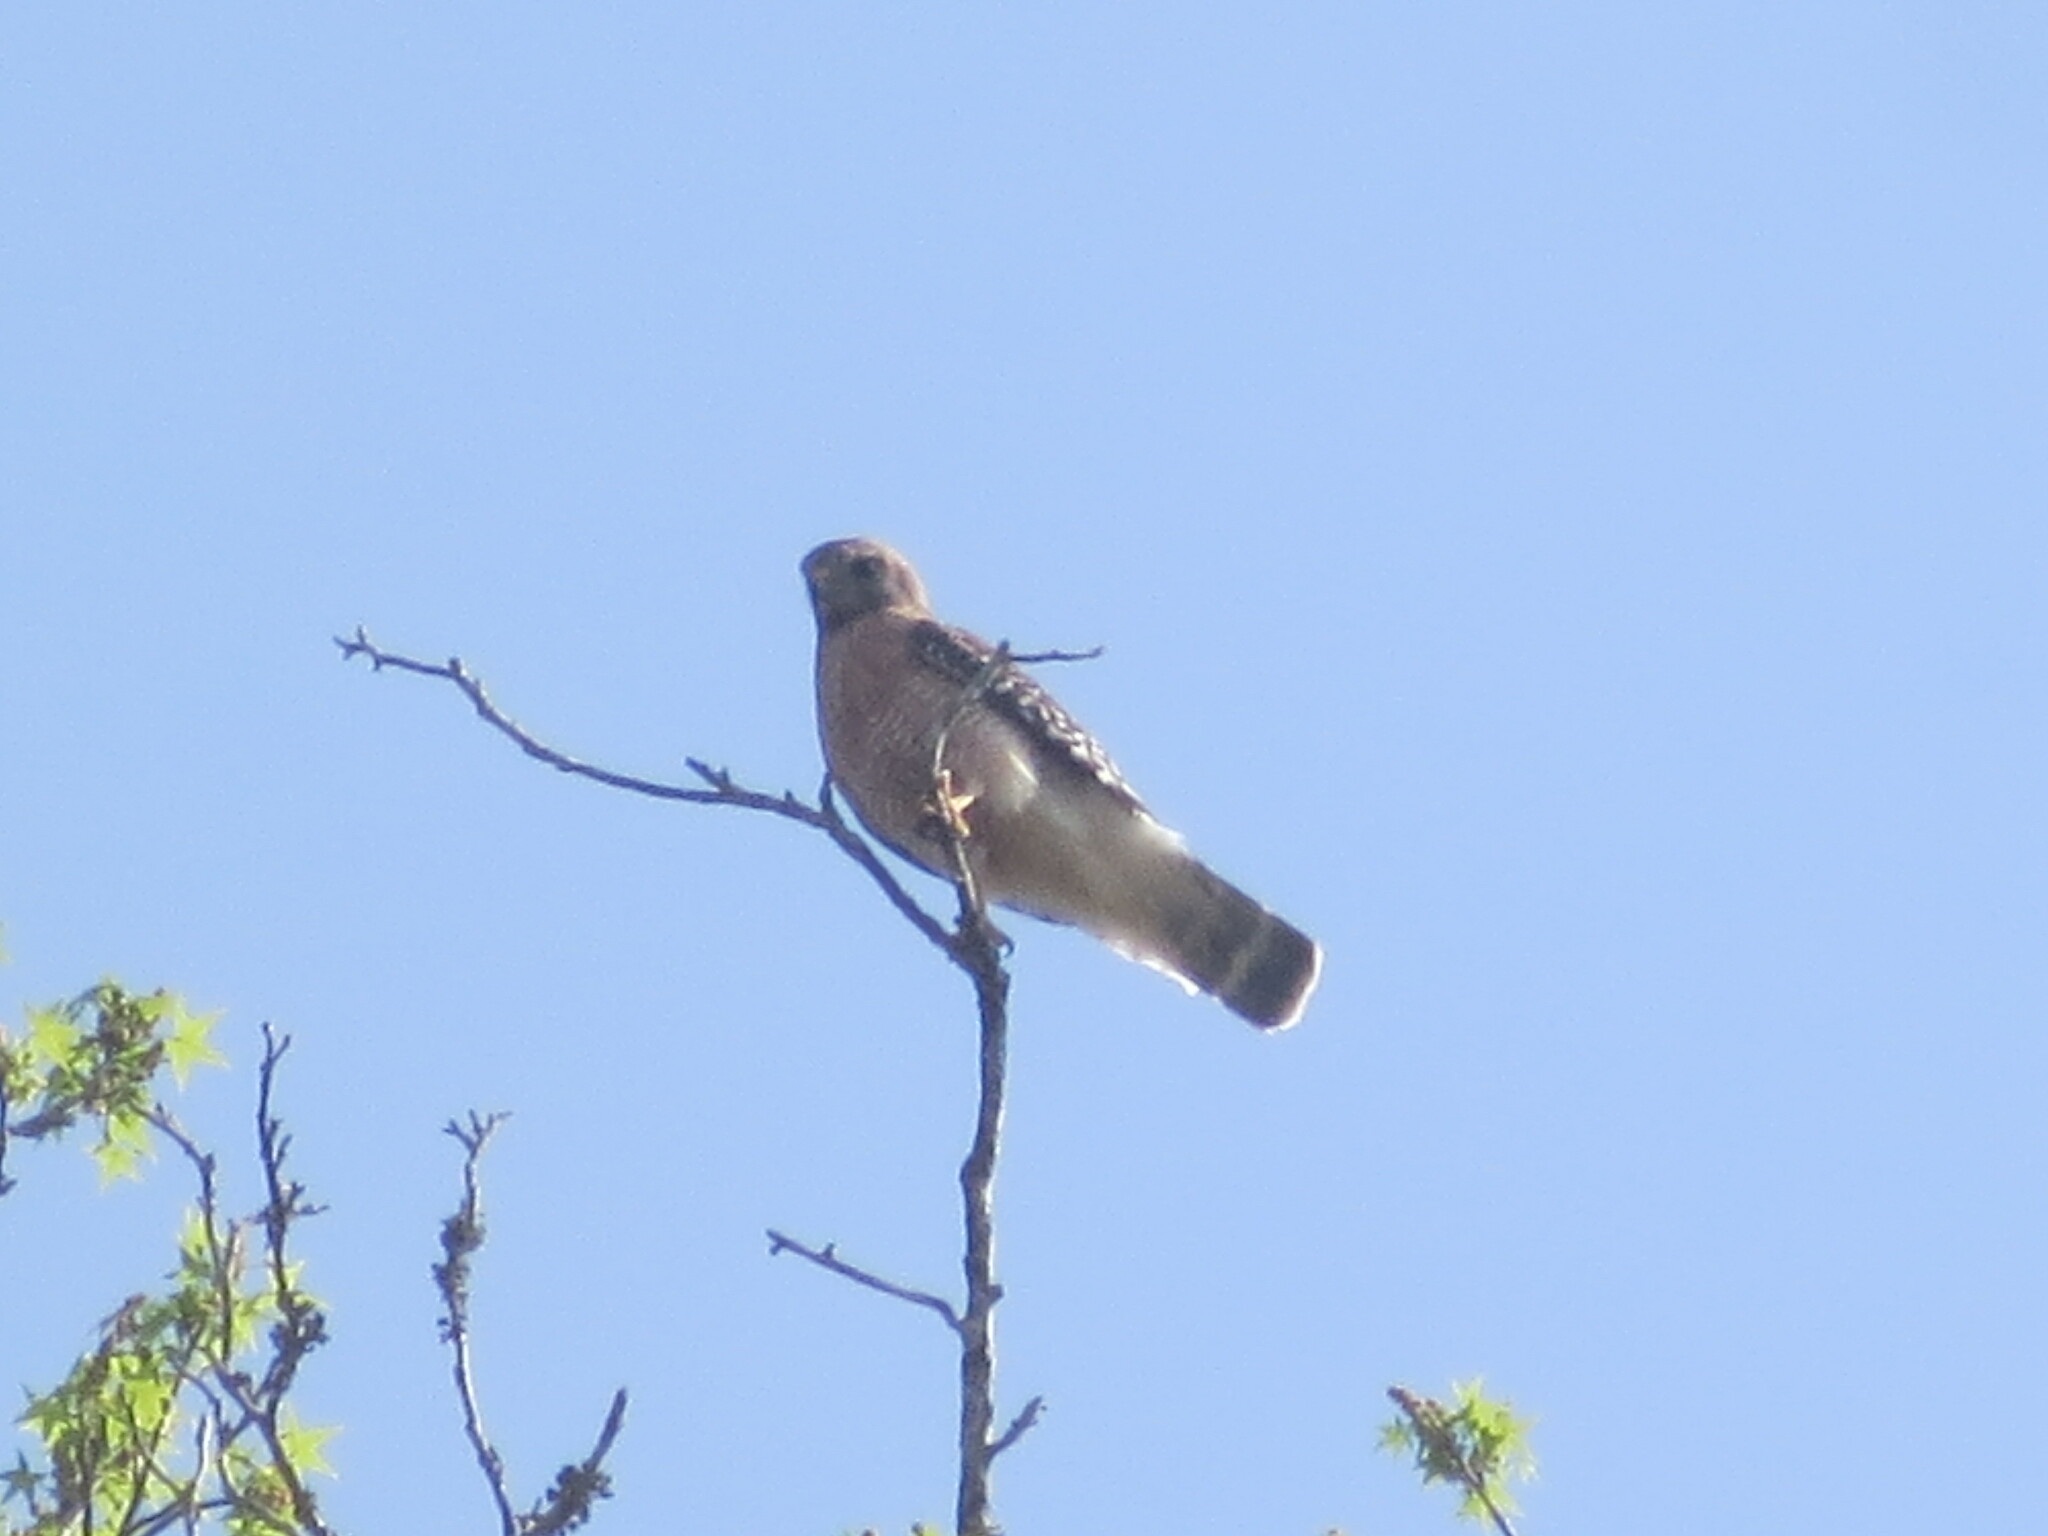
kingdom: Animalia
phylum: Chordata
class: Aves
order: Accipitriformes
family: Accipitridae
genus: Buteo
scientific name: Buteo lineatus
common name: Red-shouldered hawk
